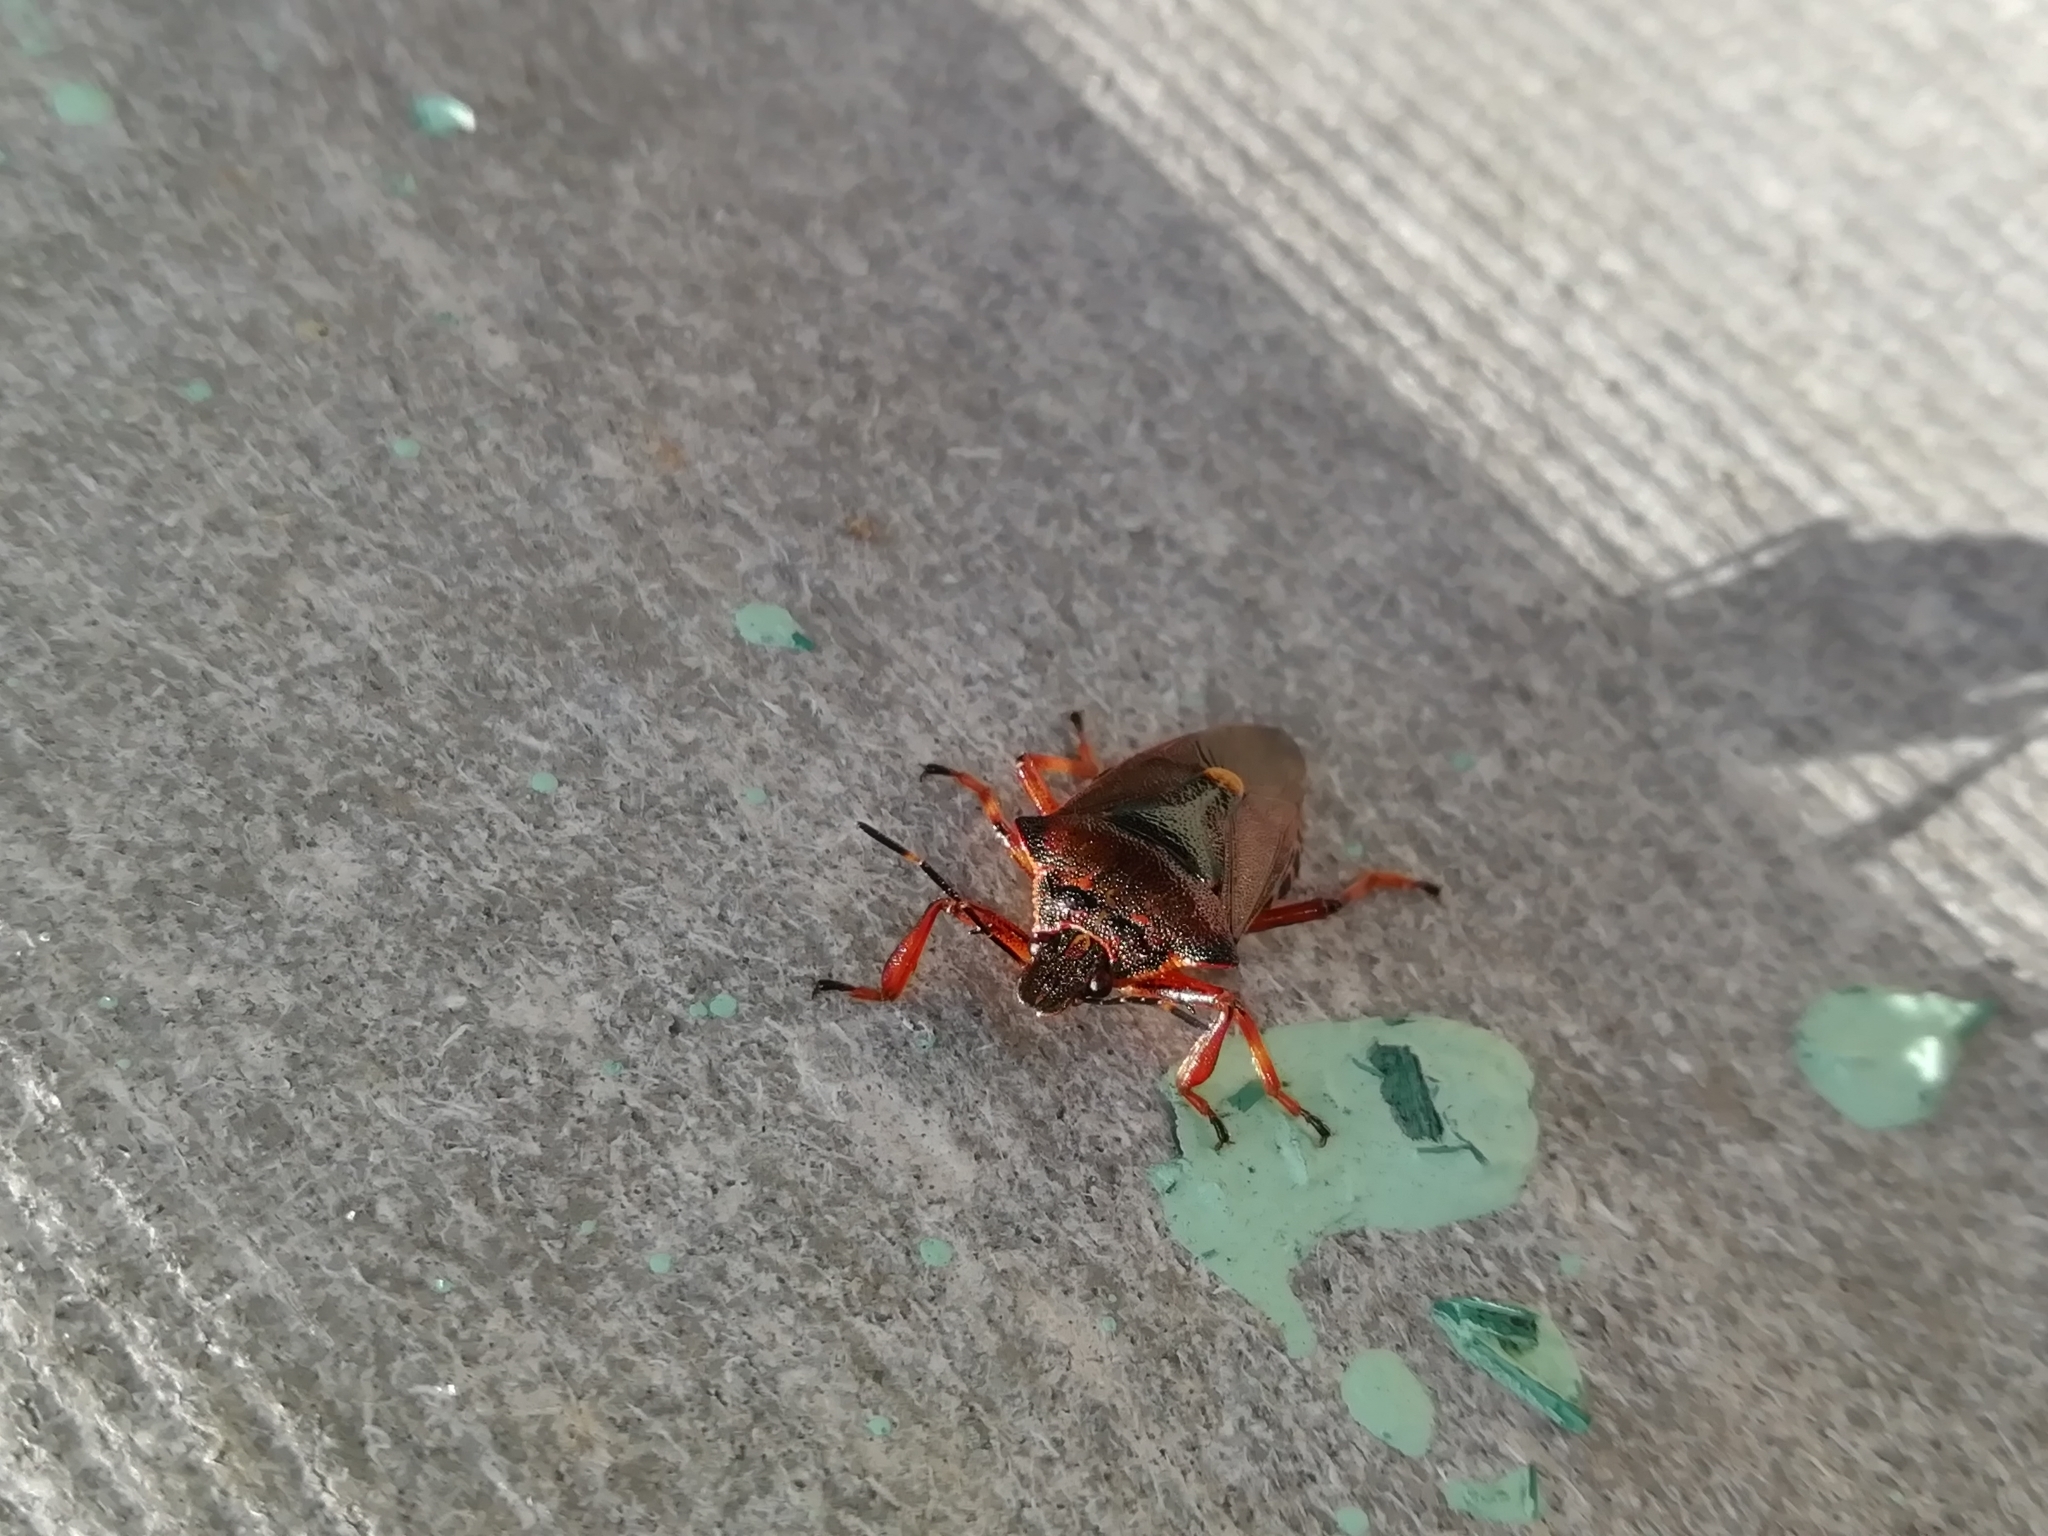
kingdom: Animalia
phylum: Arthropoda
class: Insecta
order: Hemiptera
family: Pentatomidae
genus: Pinthaeus
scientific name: Pinthaeus sanguinipes
